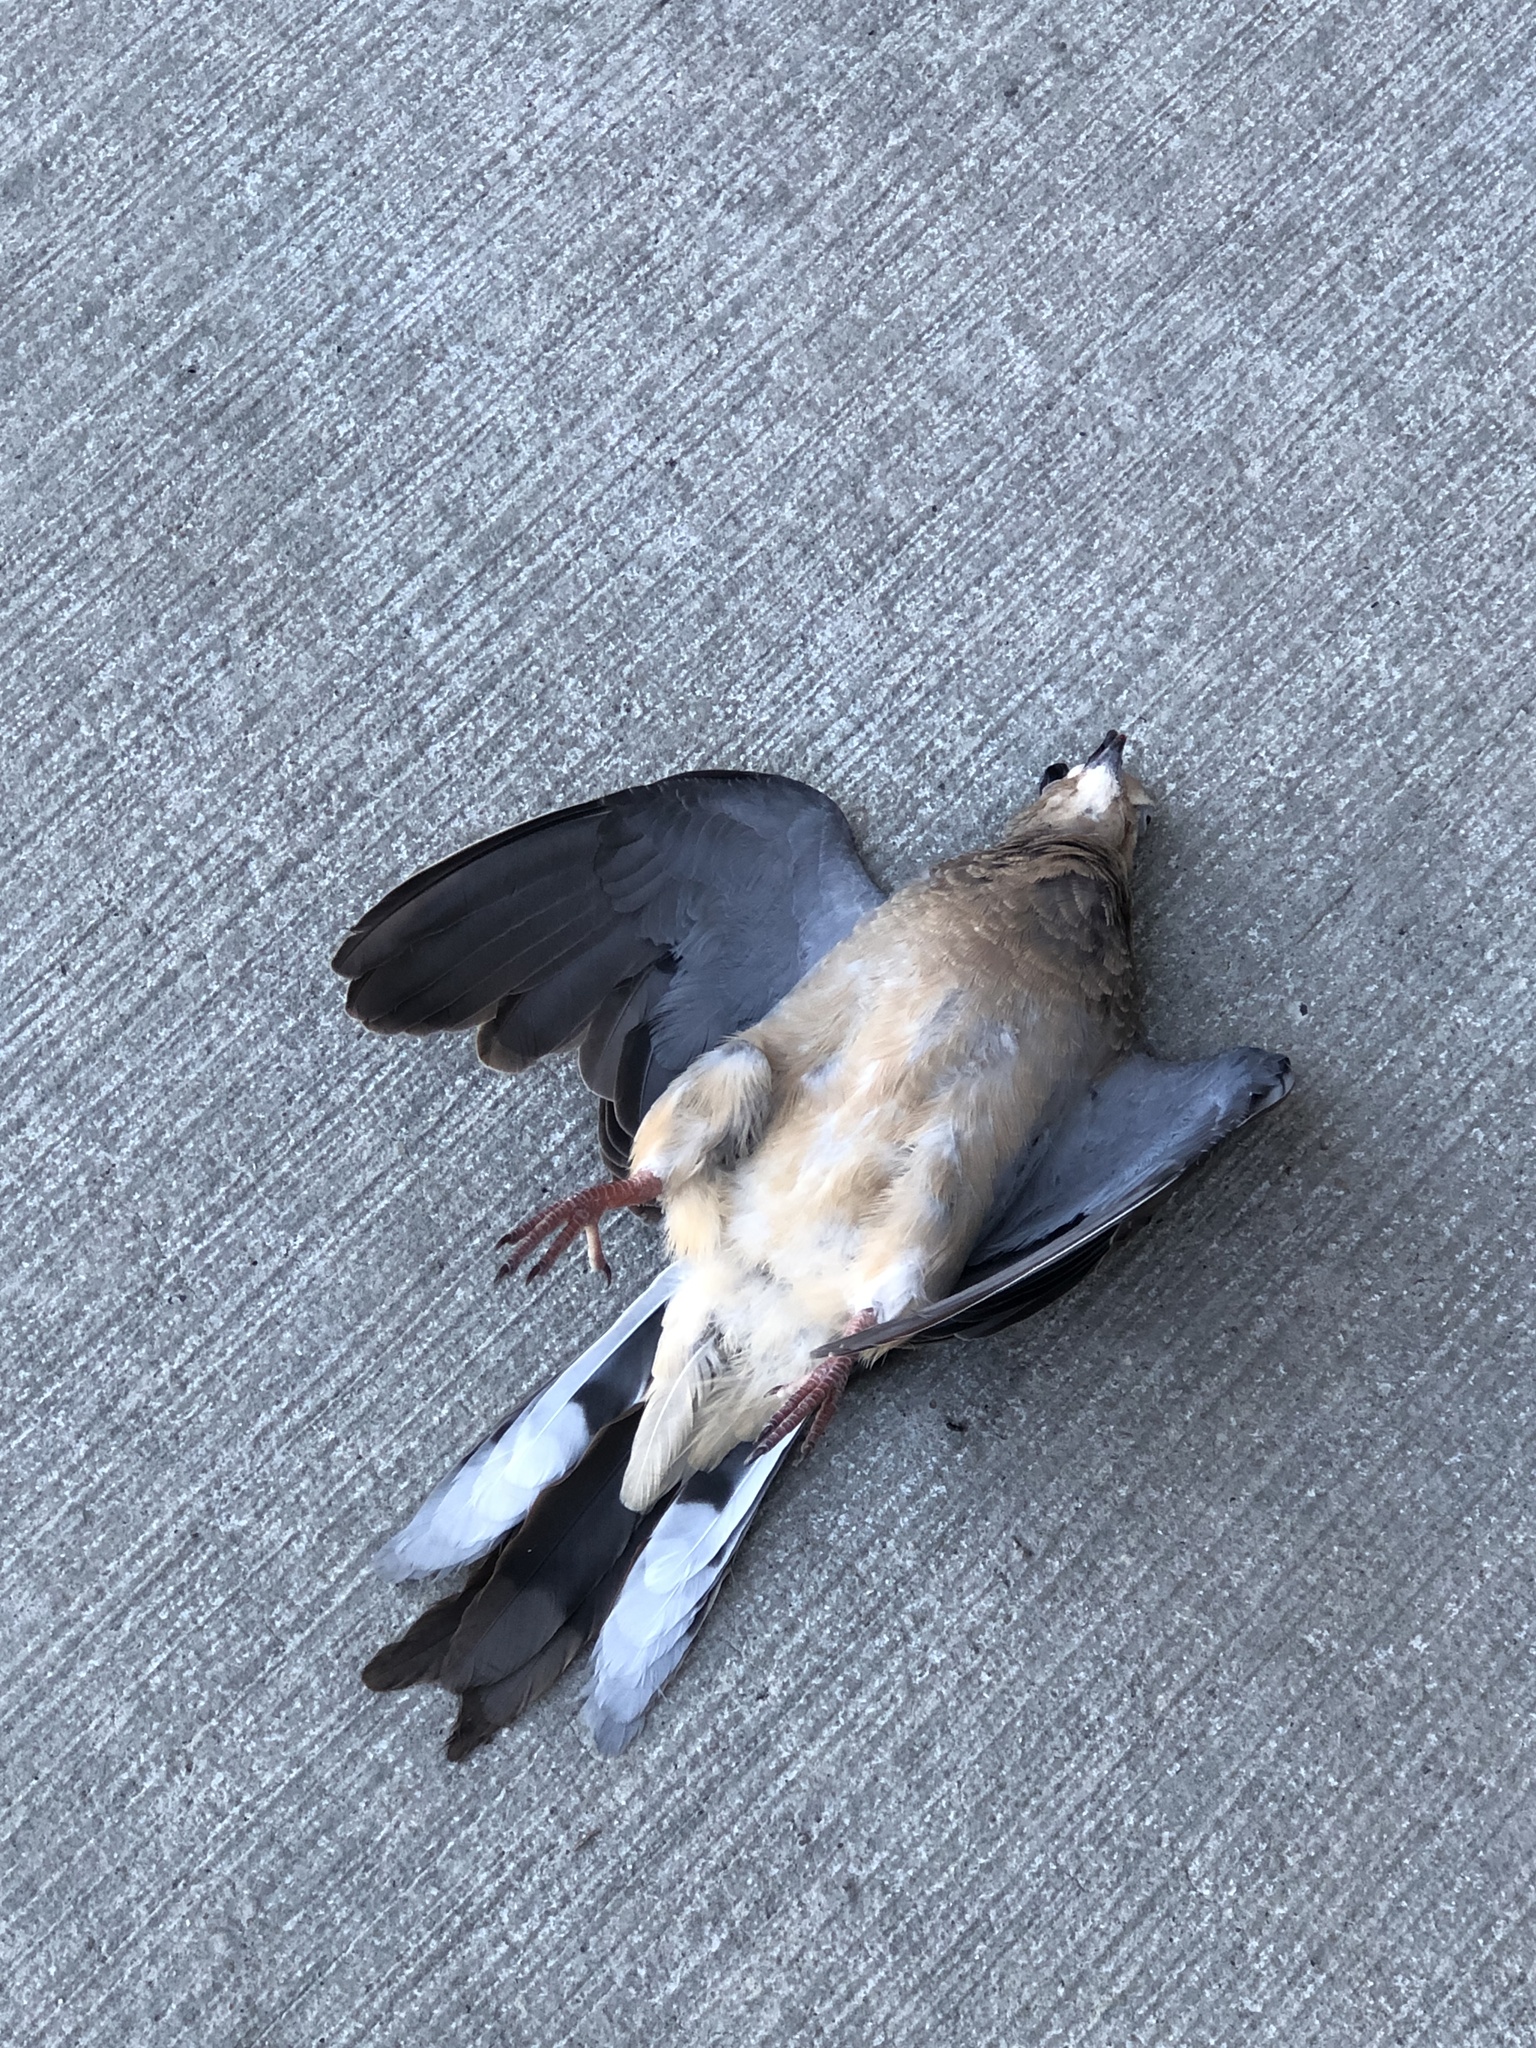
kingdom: Animalia
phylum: Chordata
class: Aves
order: Columbiformes
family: Columbidae
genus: Zenaida
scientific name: Zenaida macroura
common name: Mourning dove
